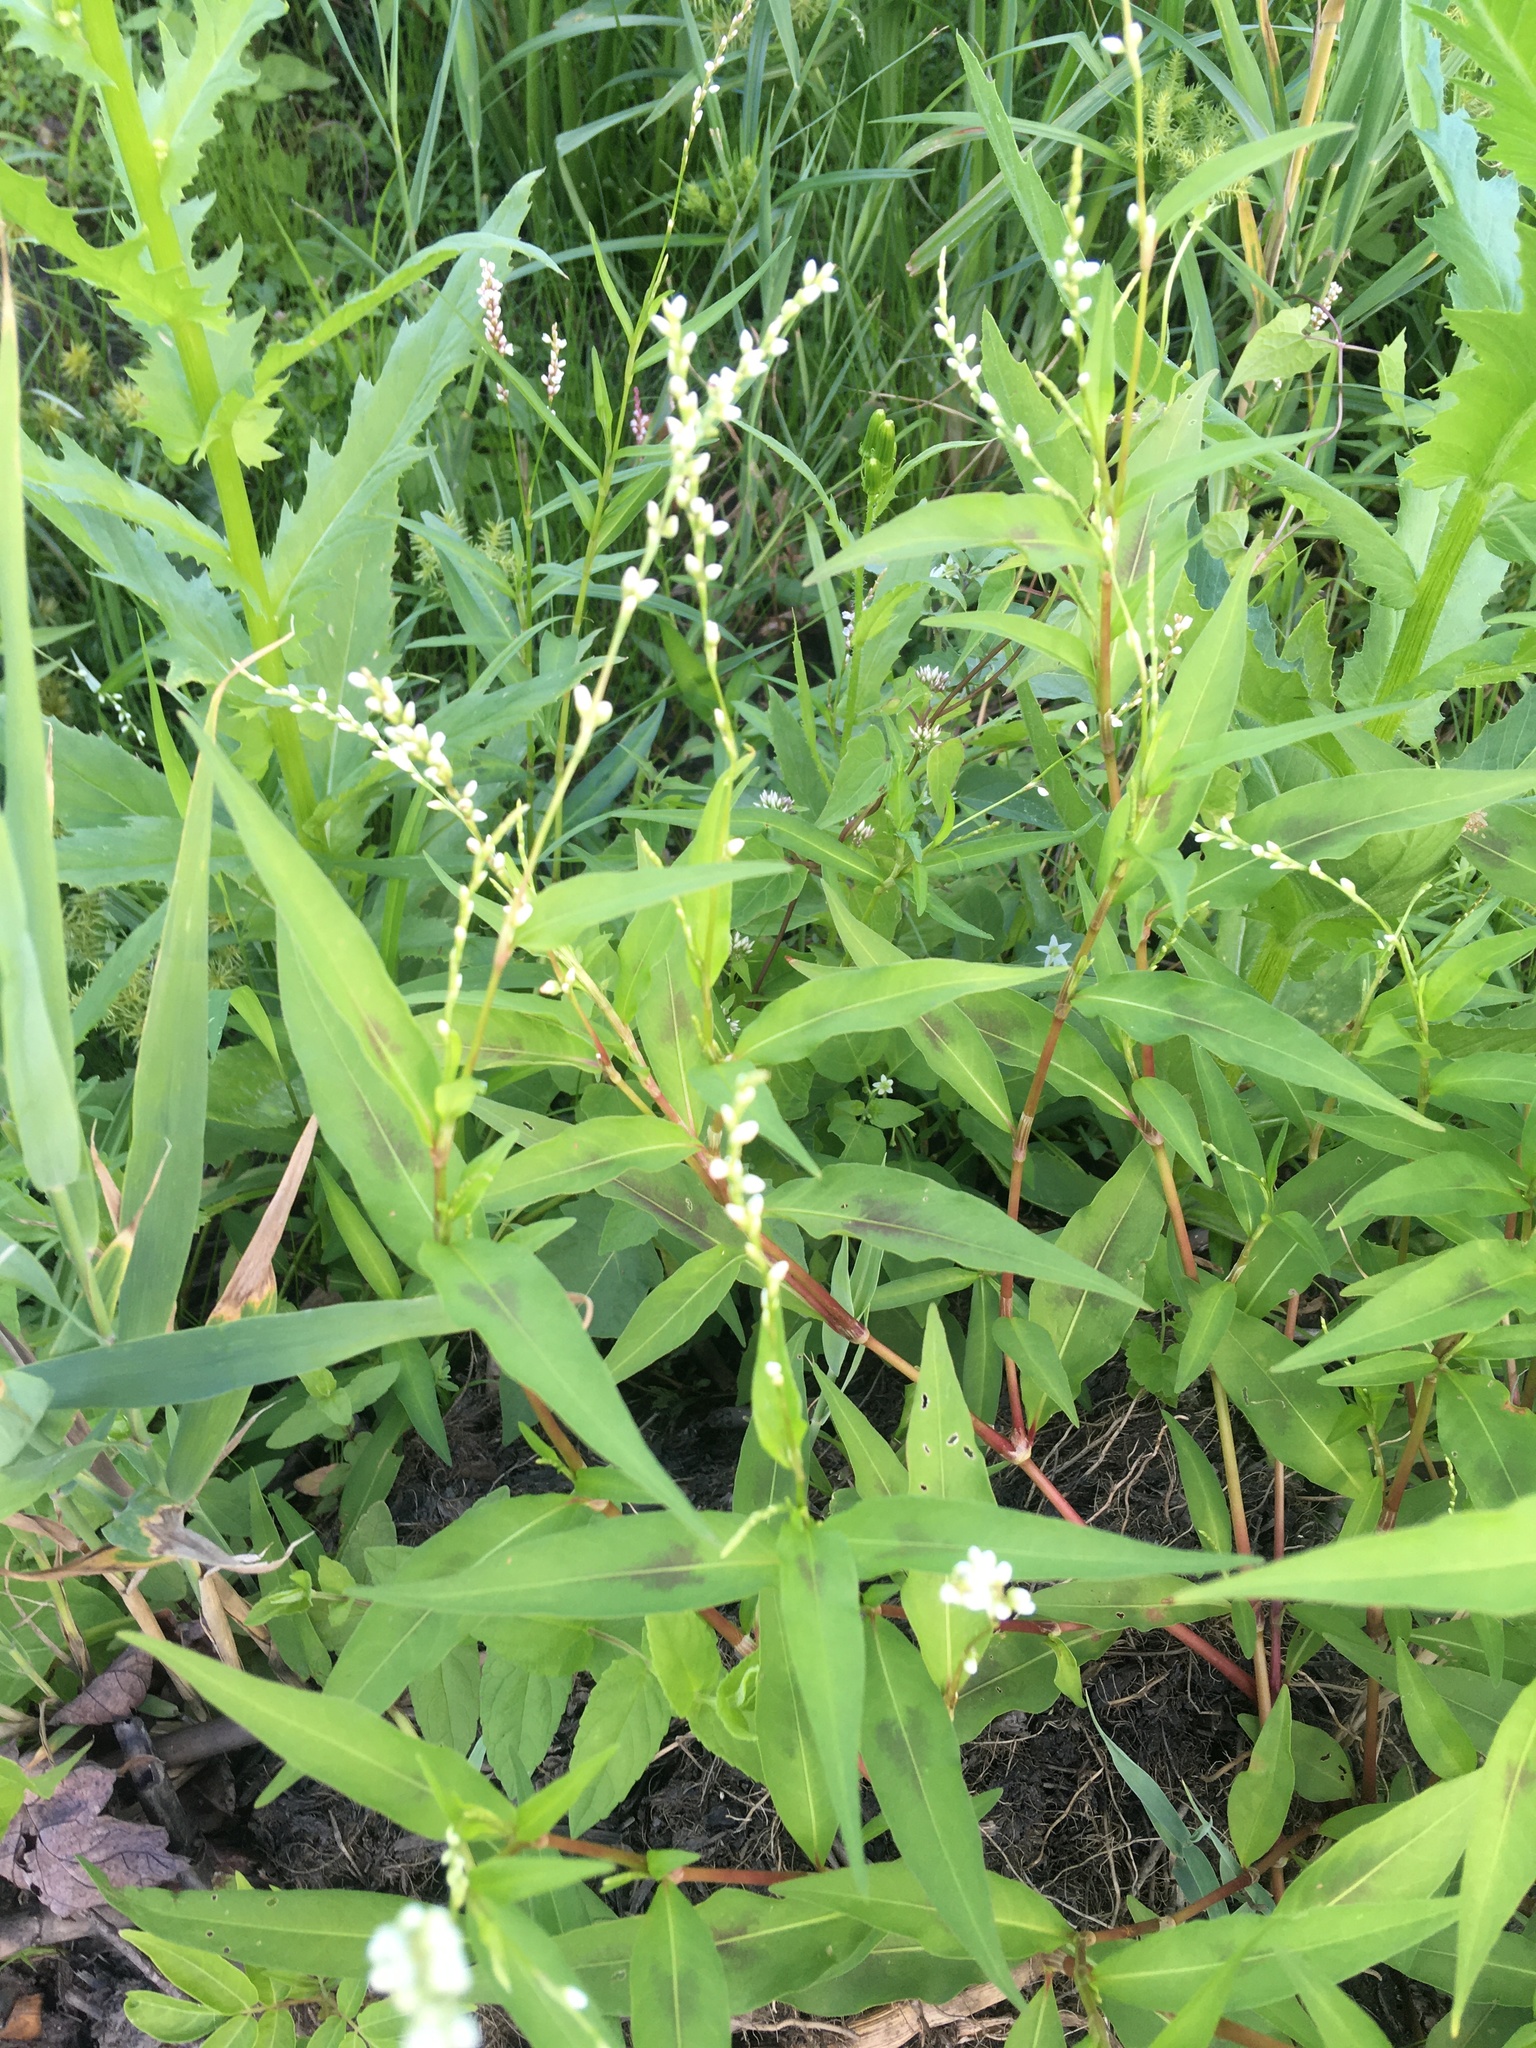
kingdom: Plantae
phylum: Tracheophyta
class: Magnoliopsida
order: Caryophyllales
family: Polygonaceae
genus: Persicaria
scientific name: Persicaria hydropiper
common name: Water-pepper
